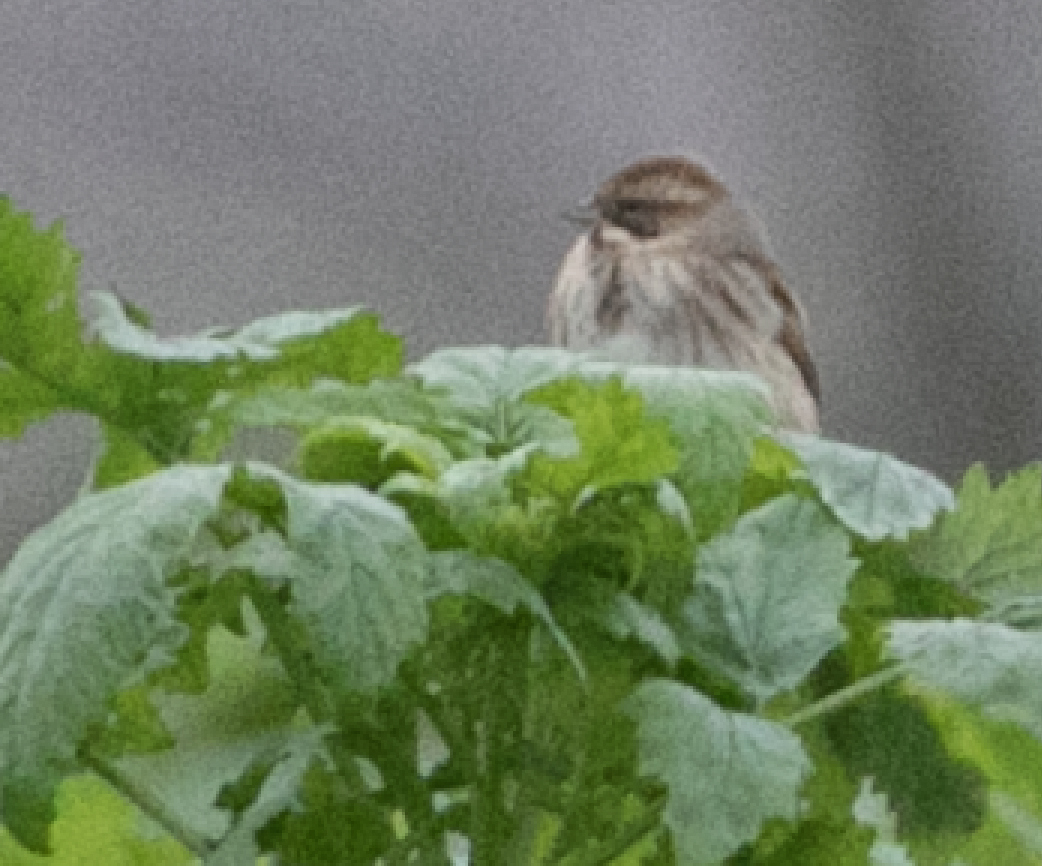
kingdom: Animalia
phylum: Chordata
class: Aves
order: Passeriformes
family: Emberizidae
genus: Emberiza
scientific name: Emberiza schoeniclus
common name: Reed bunting
